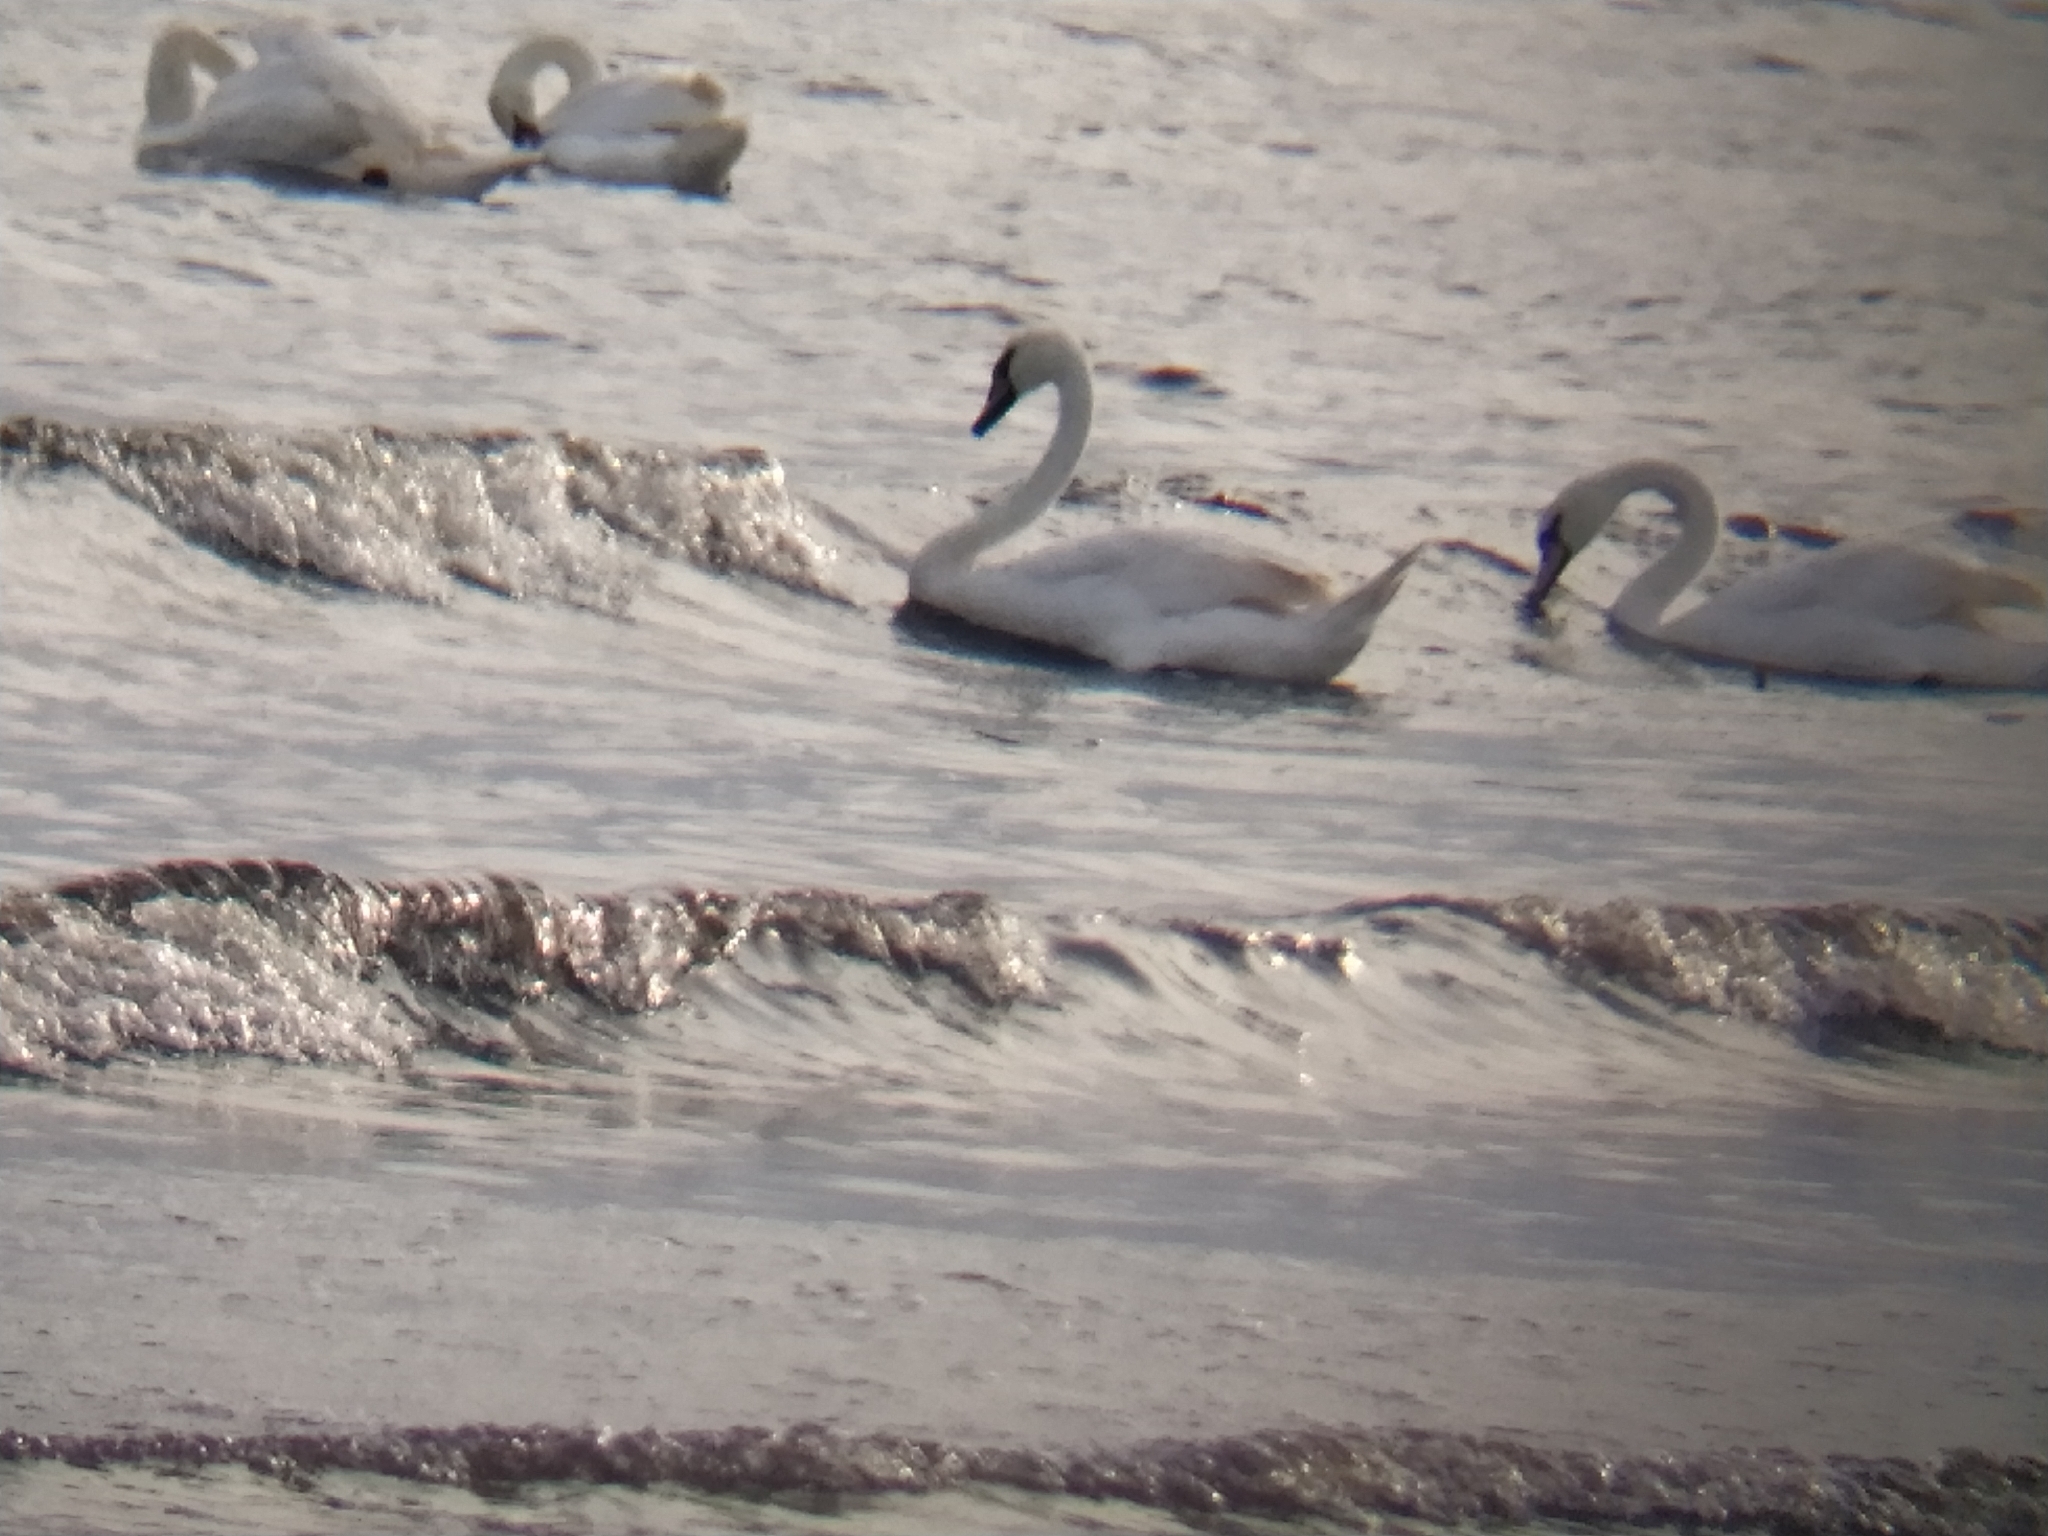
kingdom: Animalia
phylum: Chordata
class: Aves
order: Anseriformes
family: Anatidae
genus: Cygnus
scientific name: Cygnus olor
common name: Mute swan
